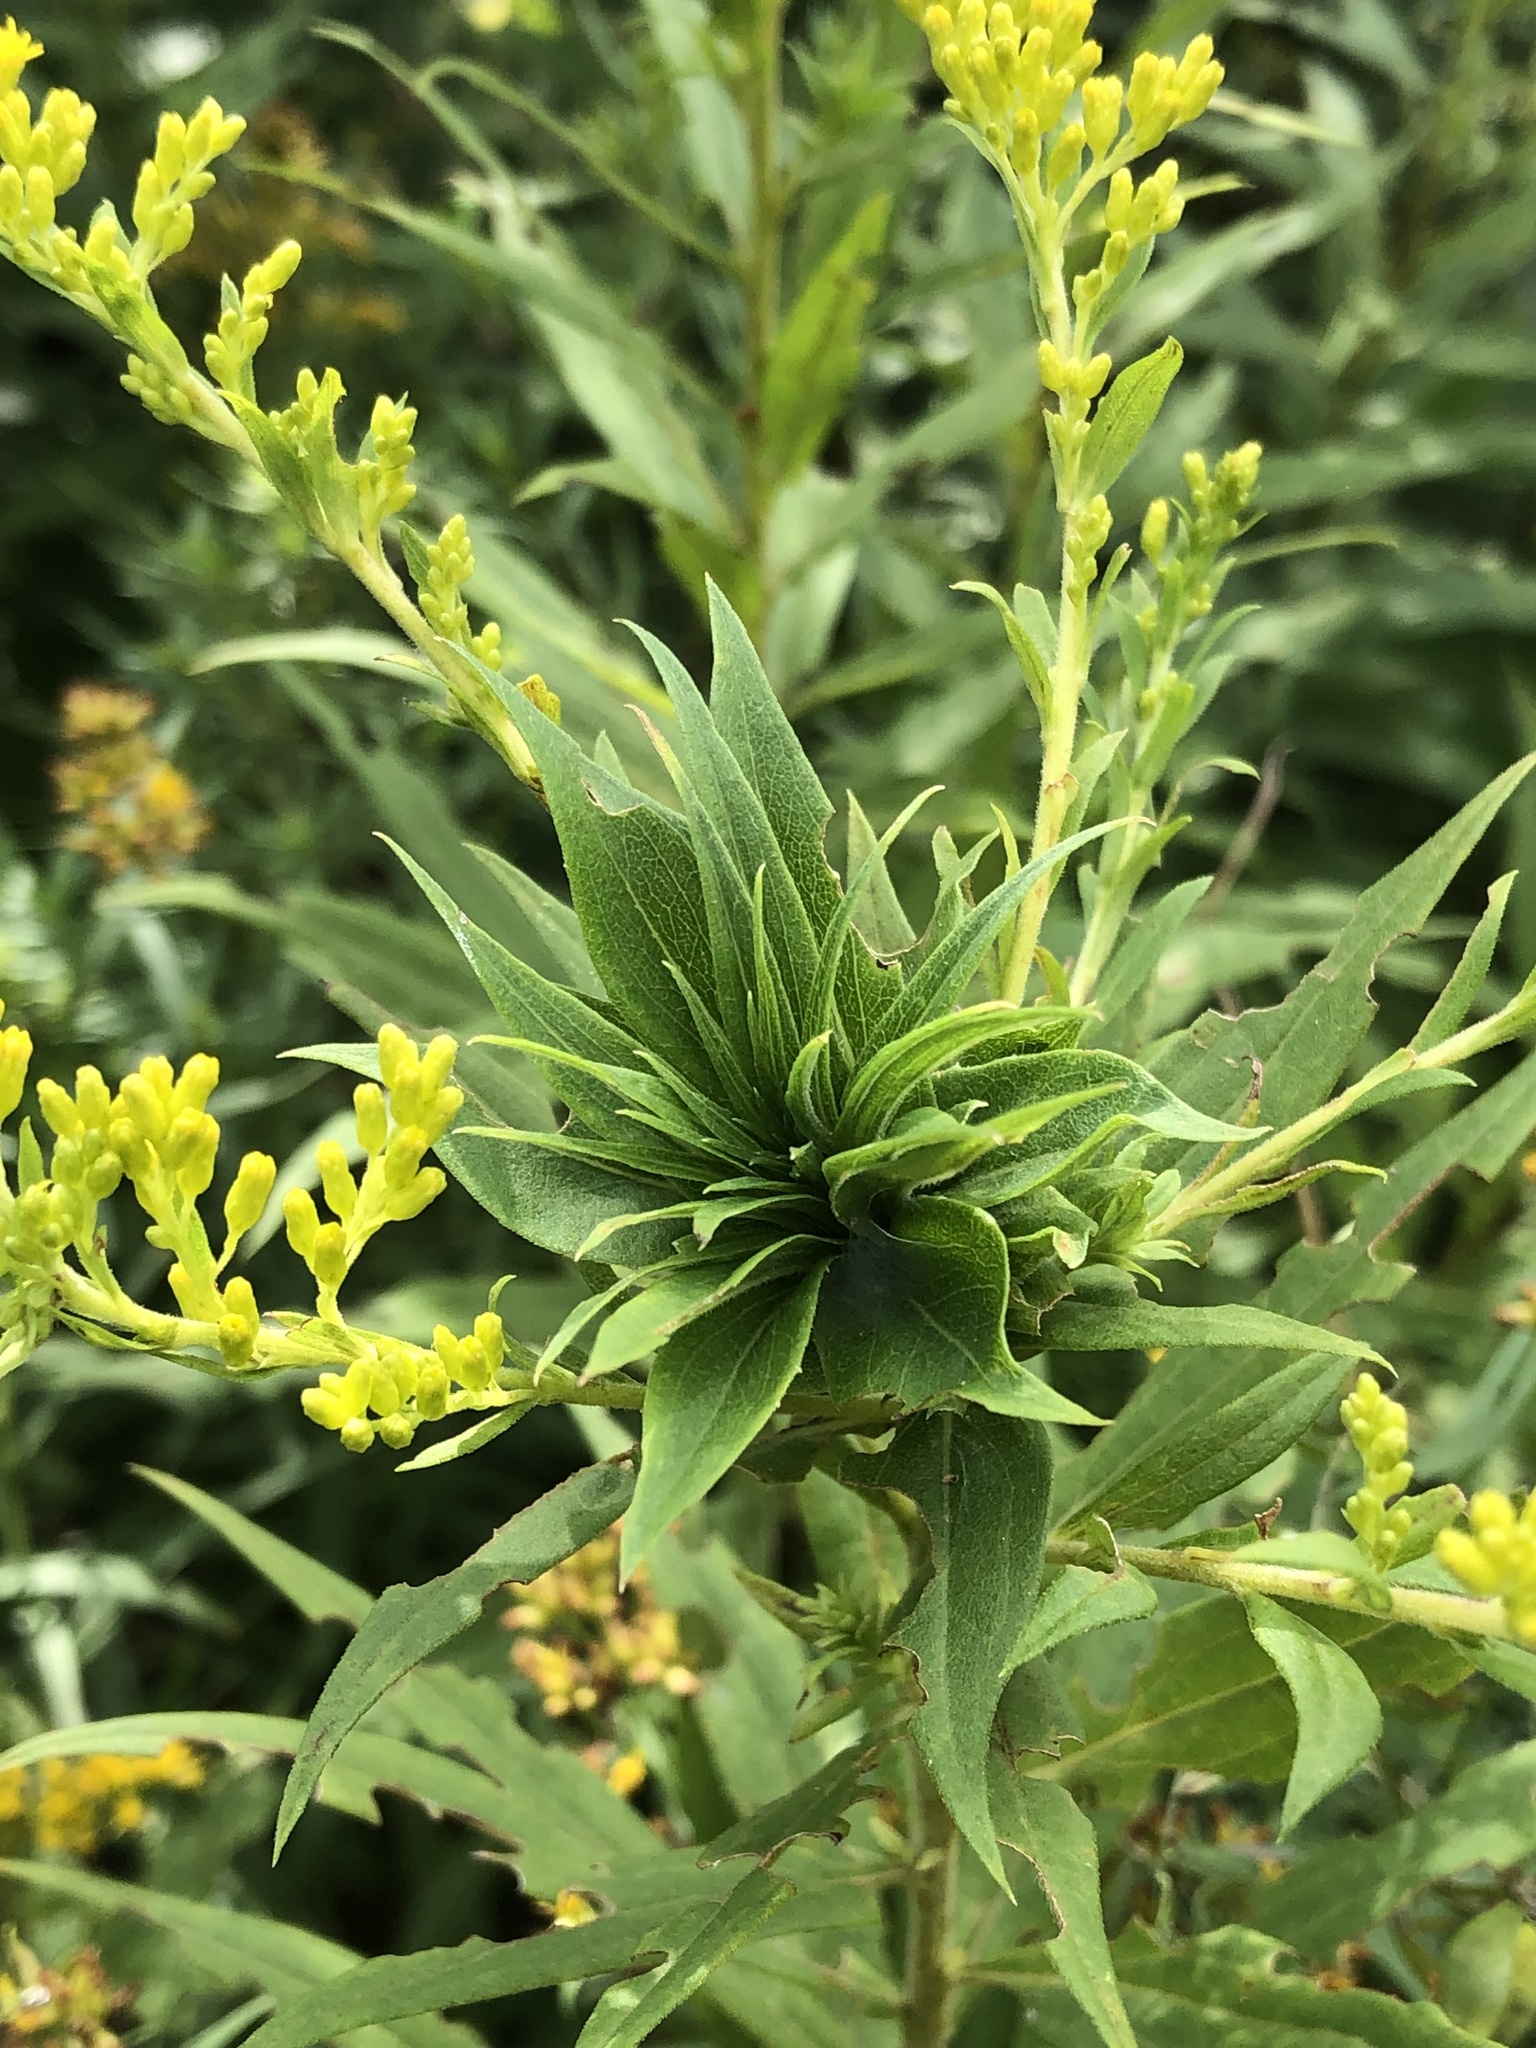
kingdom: Animalia
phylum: Arthropoda
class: Insecta
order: Diptera
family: Cecidomyiidae
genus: Rhopalomyia
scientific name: Rhopalomyia solidaginis
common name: Goldenrod bunch gall midge
